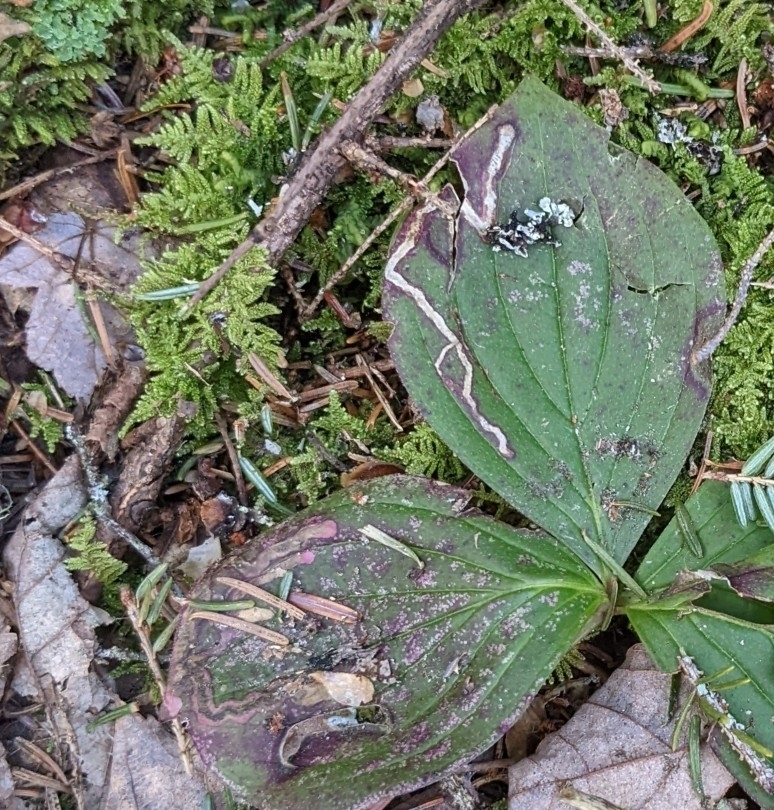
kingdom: Animalia
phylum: Arthropoda
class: Insecta
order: Diptera
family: Agromyzidae
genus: Phytomyza
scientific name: Phytomyza agromyzina
